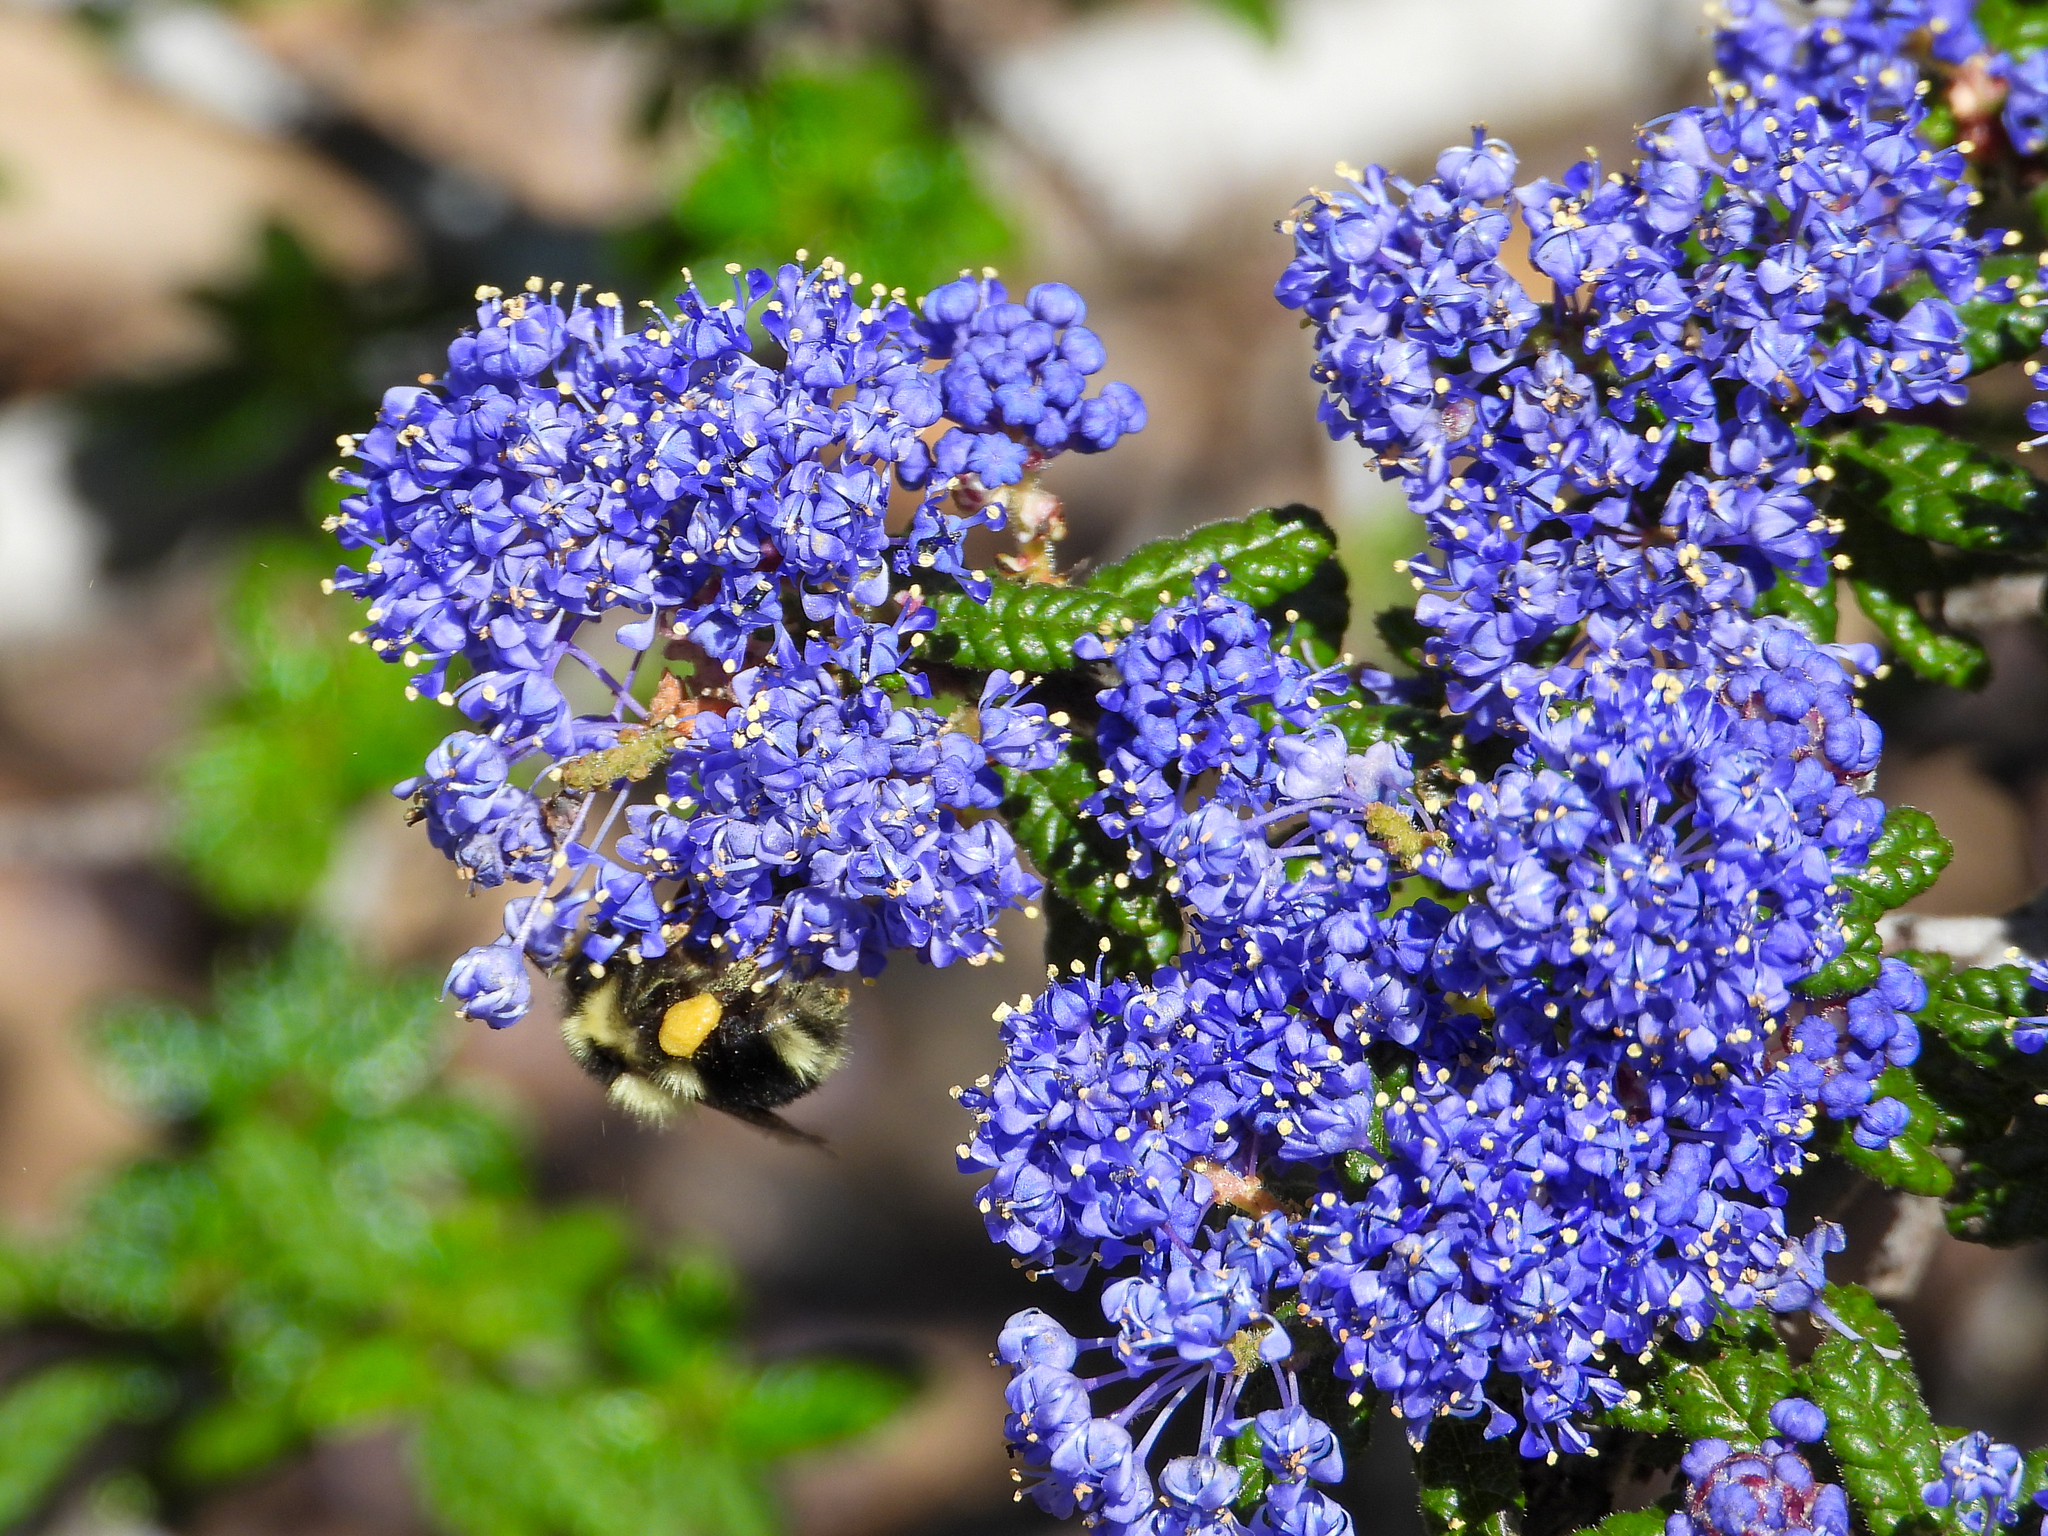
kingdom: Animalia
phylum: Arthropoda
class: Insecta
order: Hymenoptera
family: Apidae
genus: Bombus
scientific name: Bombus melanopygus
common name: Black tail bumble bee
